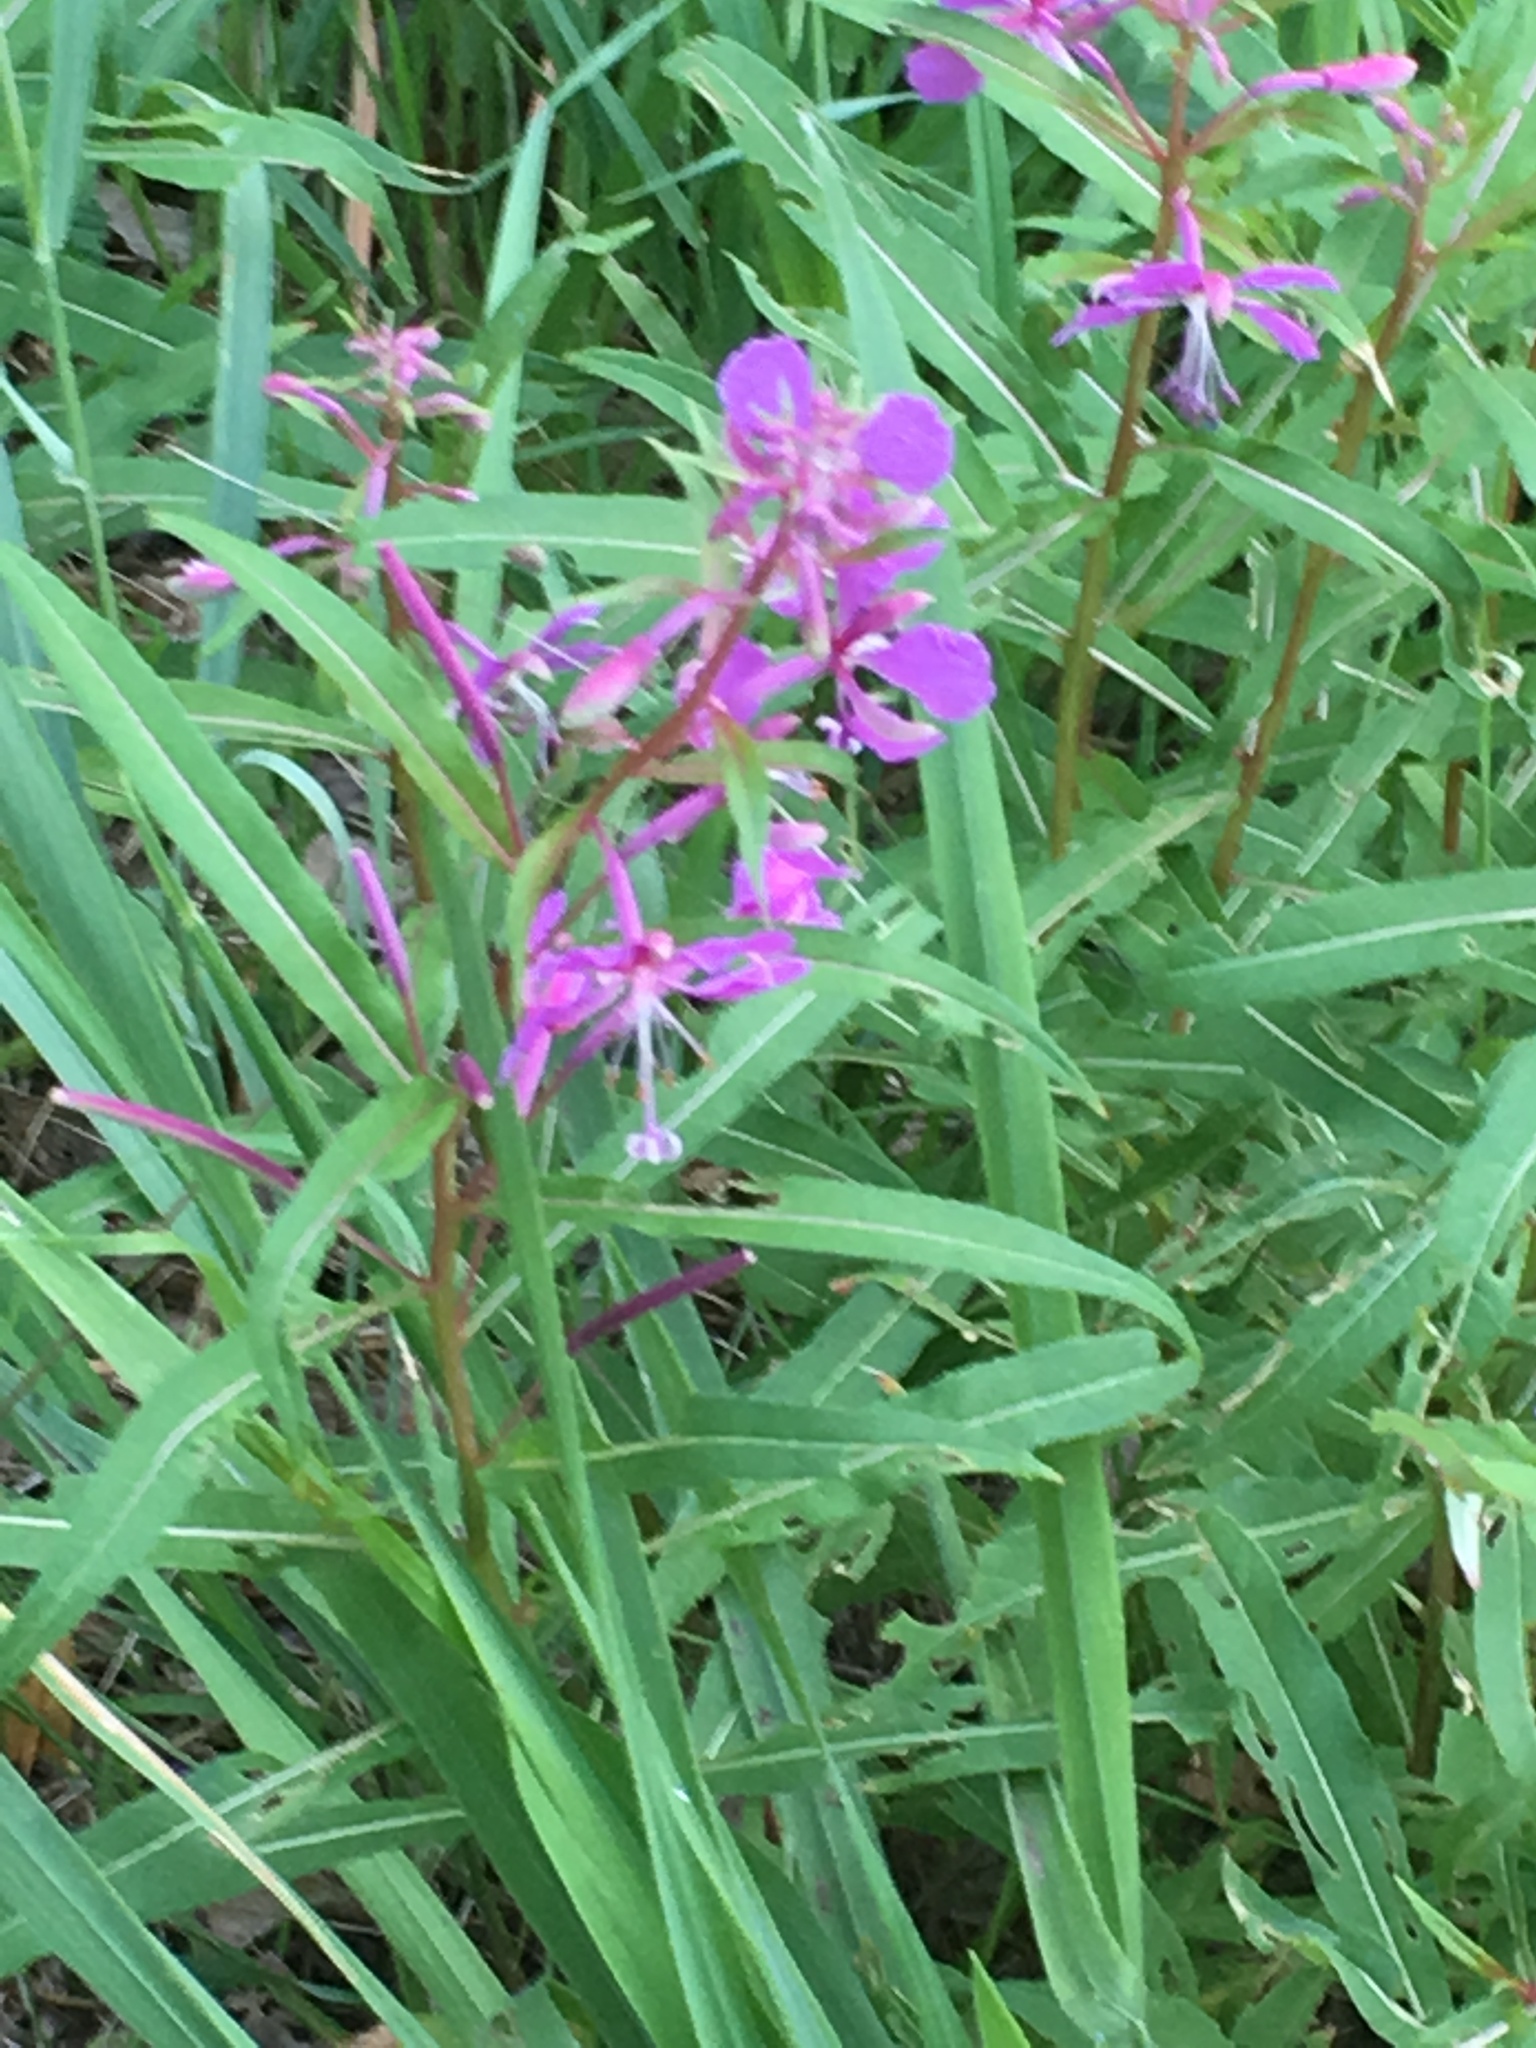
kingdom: Plantae
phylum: Tracheophyta
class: Magnoliopsida
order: Myrtales
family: Onagraceae
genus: Chamaenerion
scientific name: Chamaenerion angustifolium
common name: Fireweed
